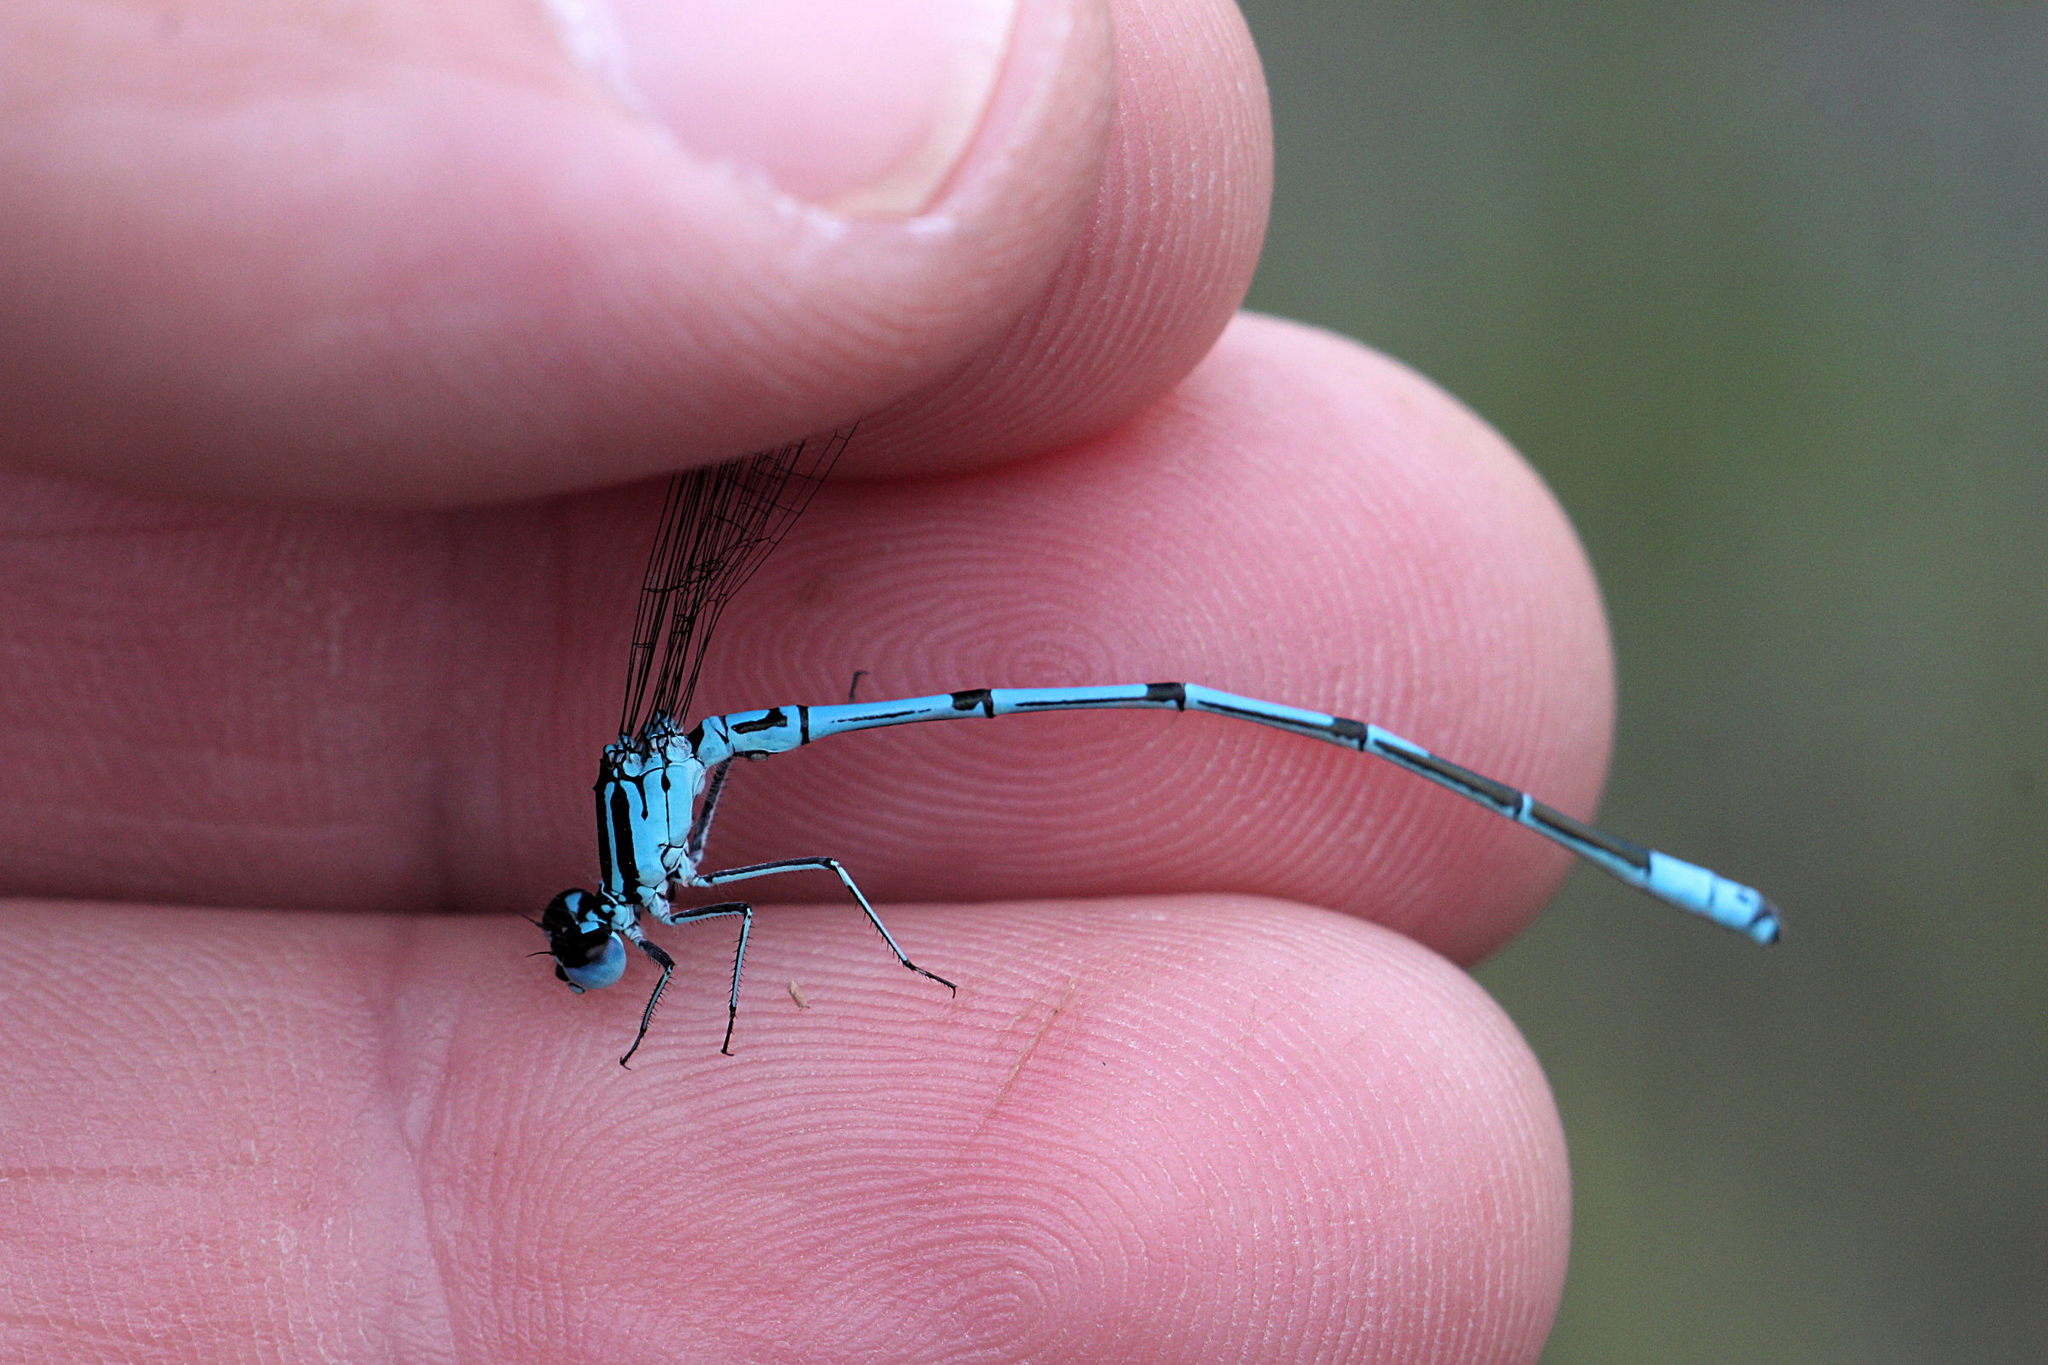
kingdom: Animalia
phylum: Arthropoda
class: Insecta
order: Odonata
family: Coenagrionidae
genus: Coenagrion
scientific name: Coenagrion puella
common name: Azure damselfly
